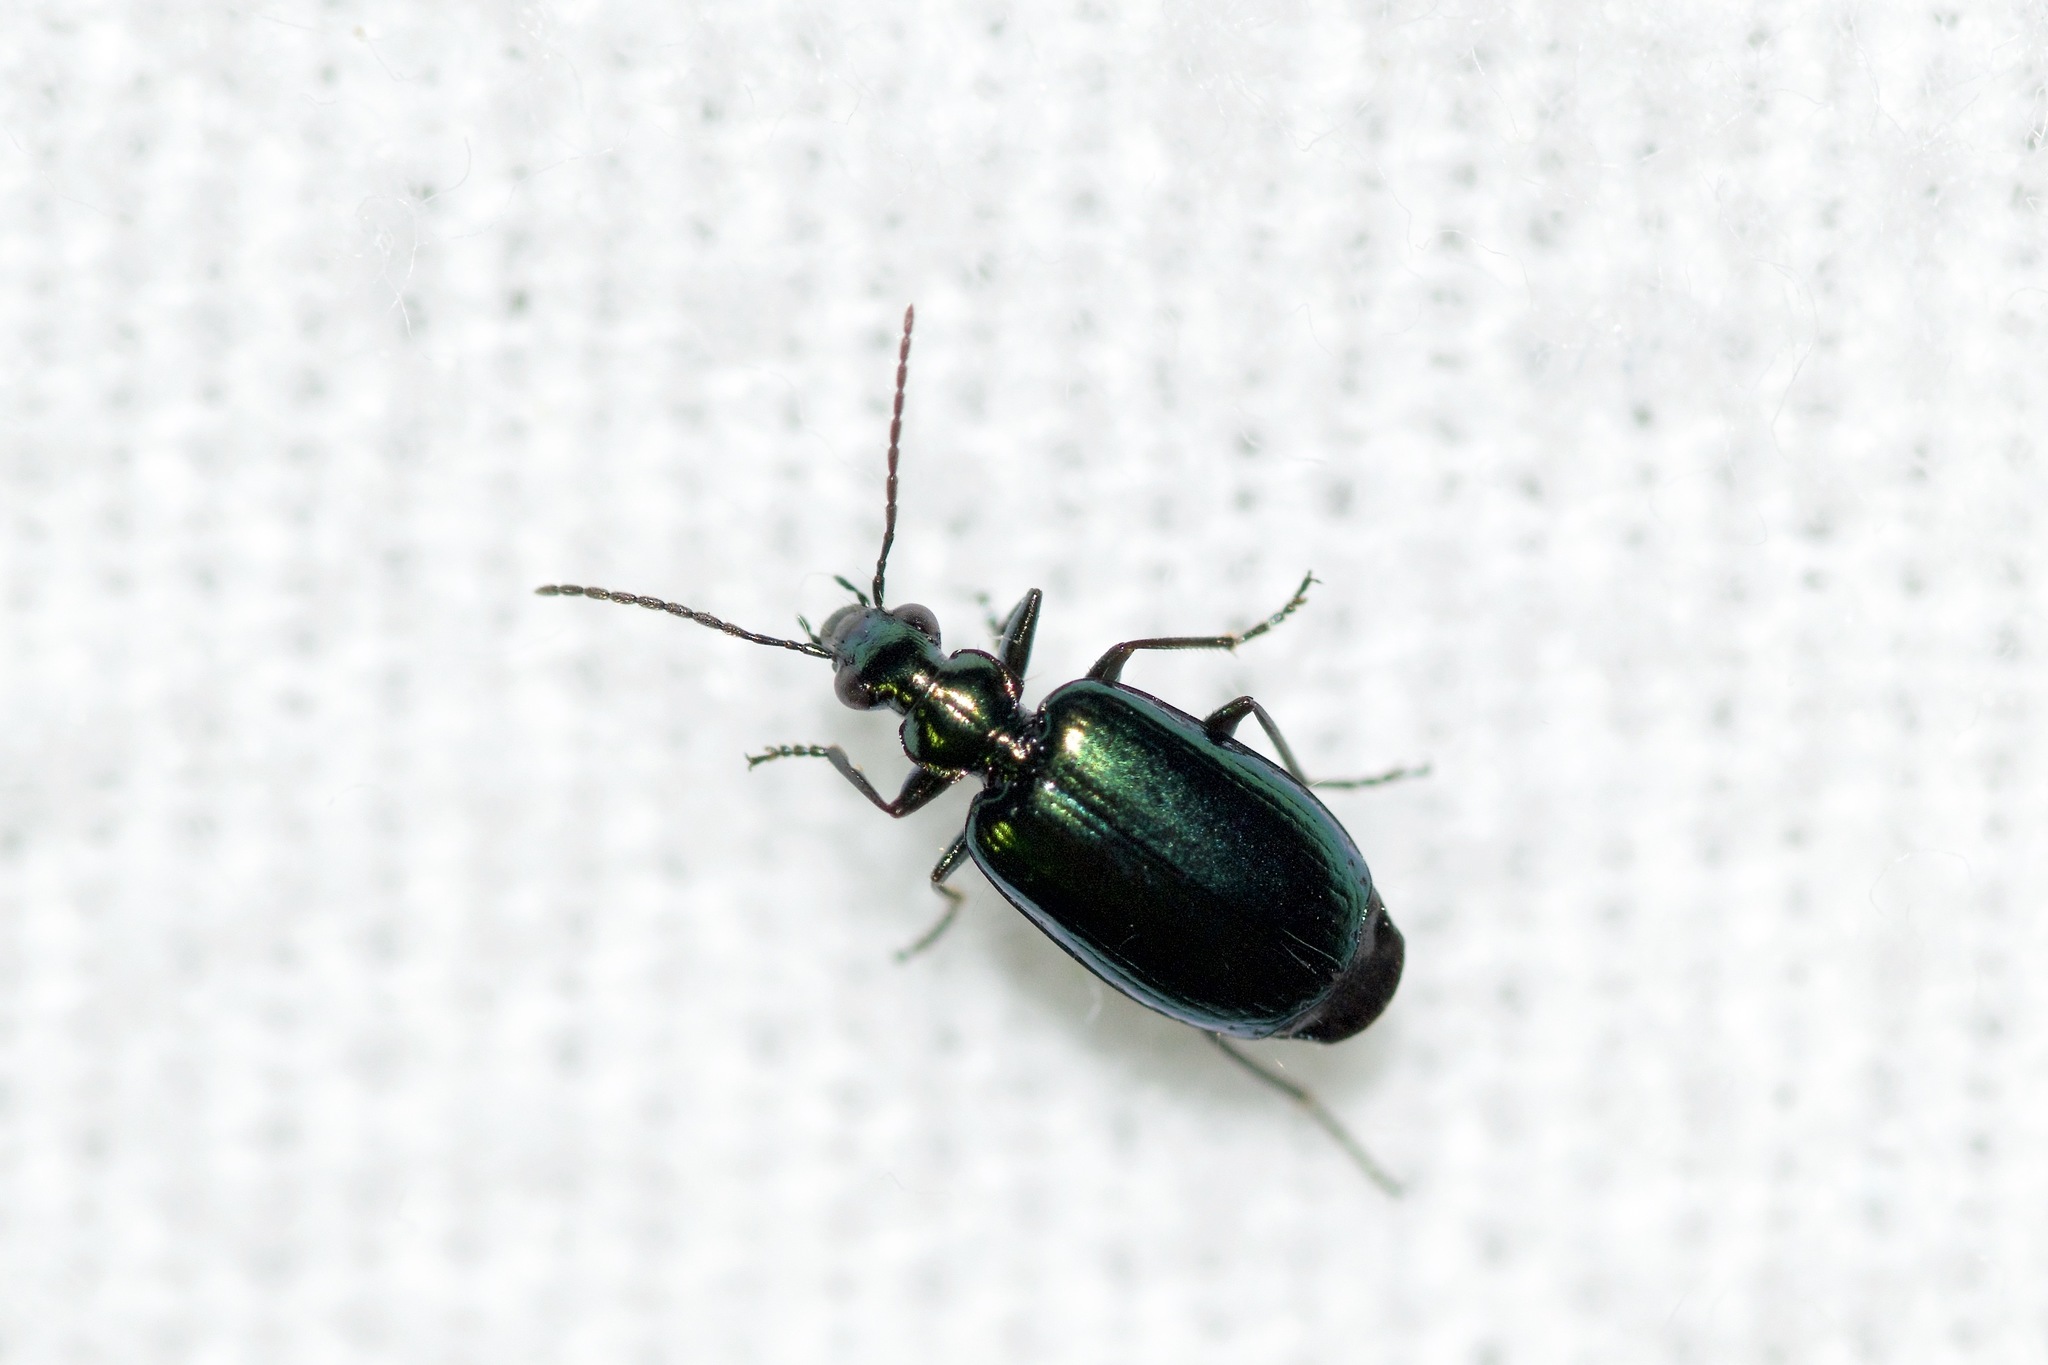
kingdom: Animalia
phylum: Arthropoda
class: Insecta
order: Coleoptera
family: Carabidae
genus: Lebia
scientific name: Lebia viridis
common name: Flower lebia beetle
